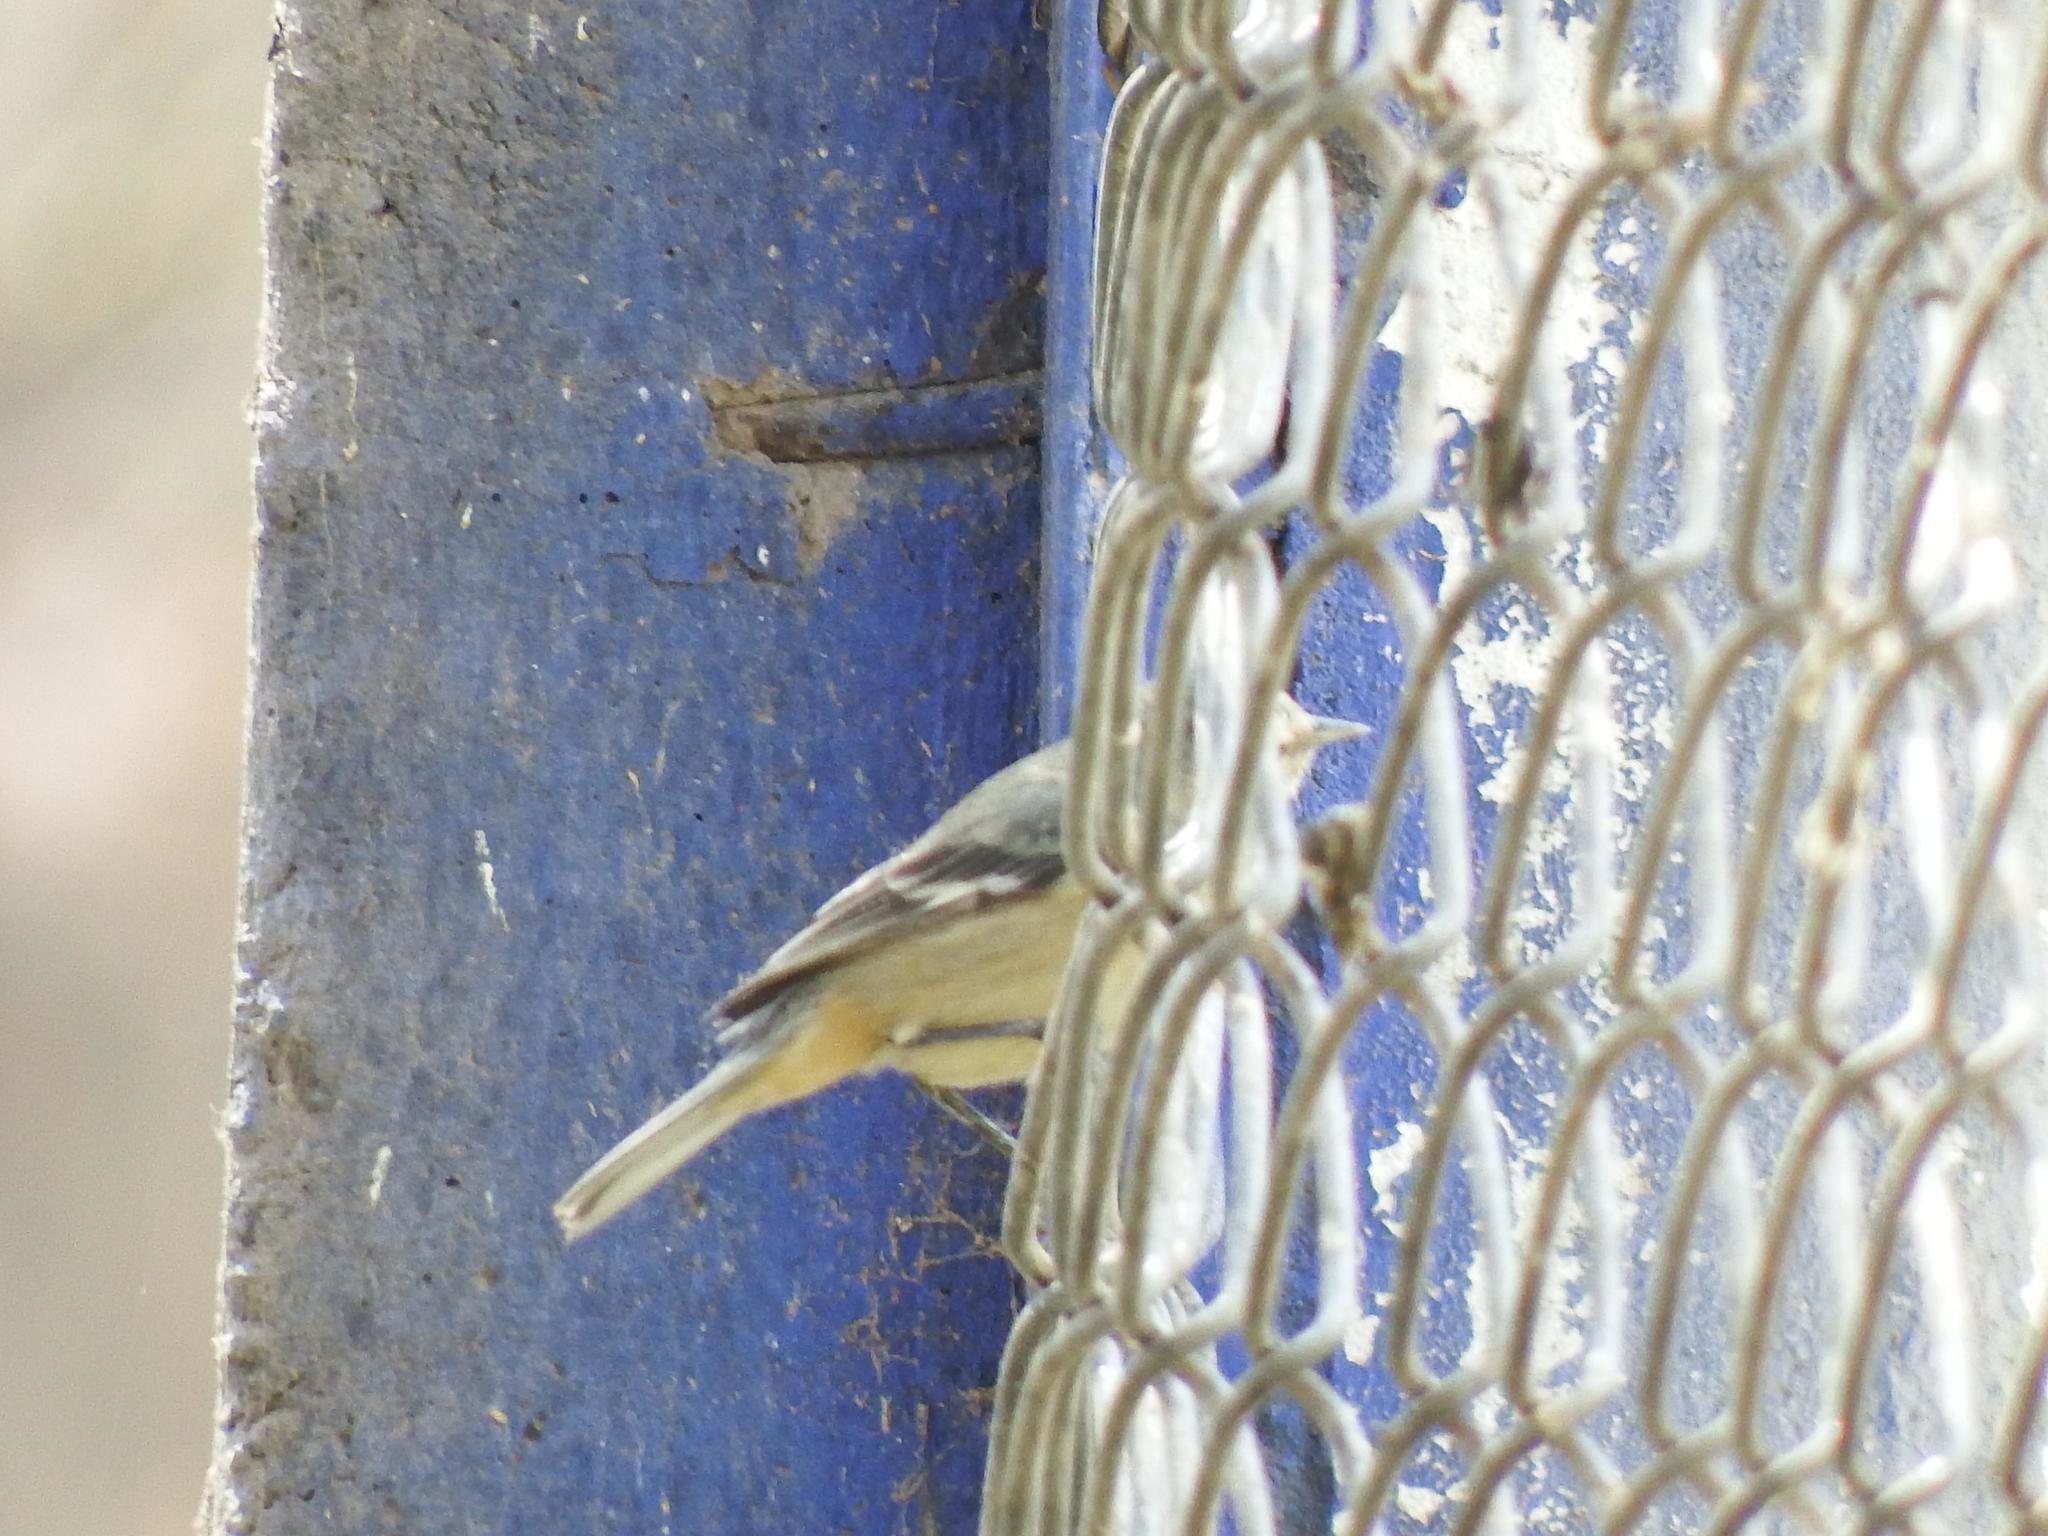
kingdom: Animalia
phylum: Chordata
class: Aves
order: Passeriformes
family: Thraupidae
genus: Conirostrum
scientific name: Conirostrum cinereum
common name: Cinereous conebill
